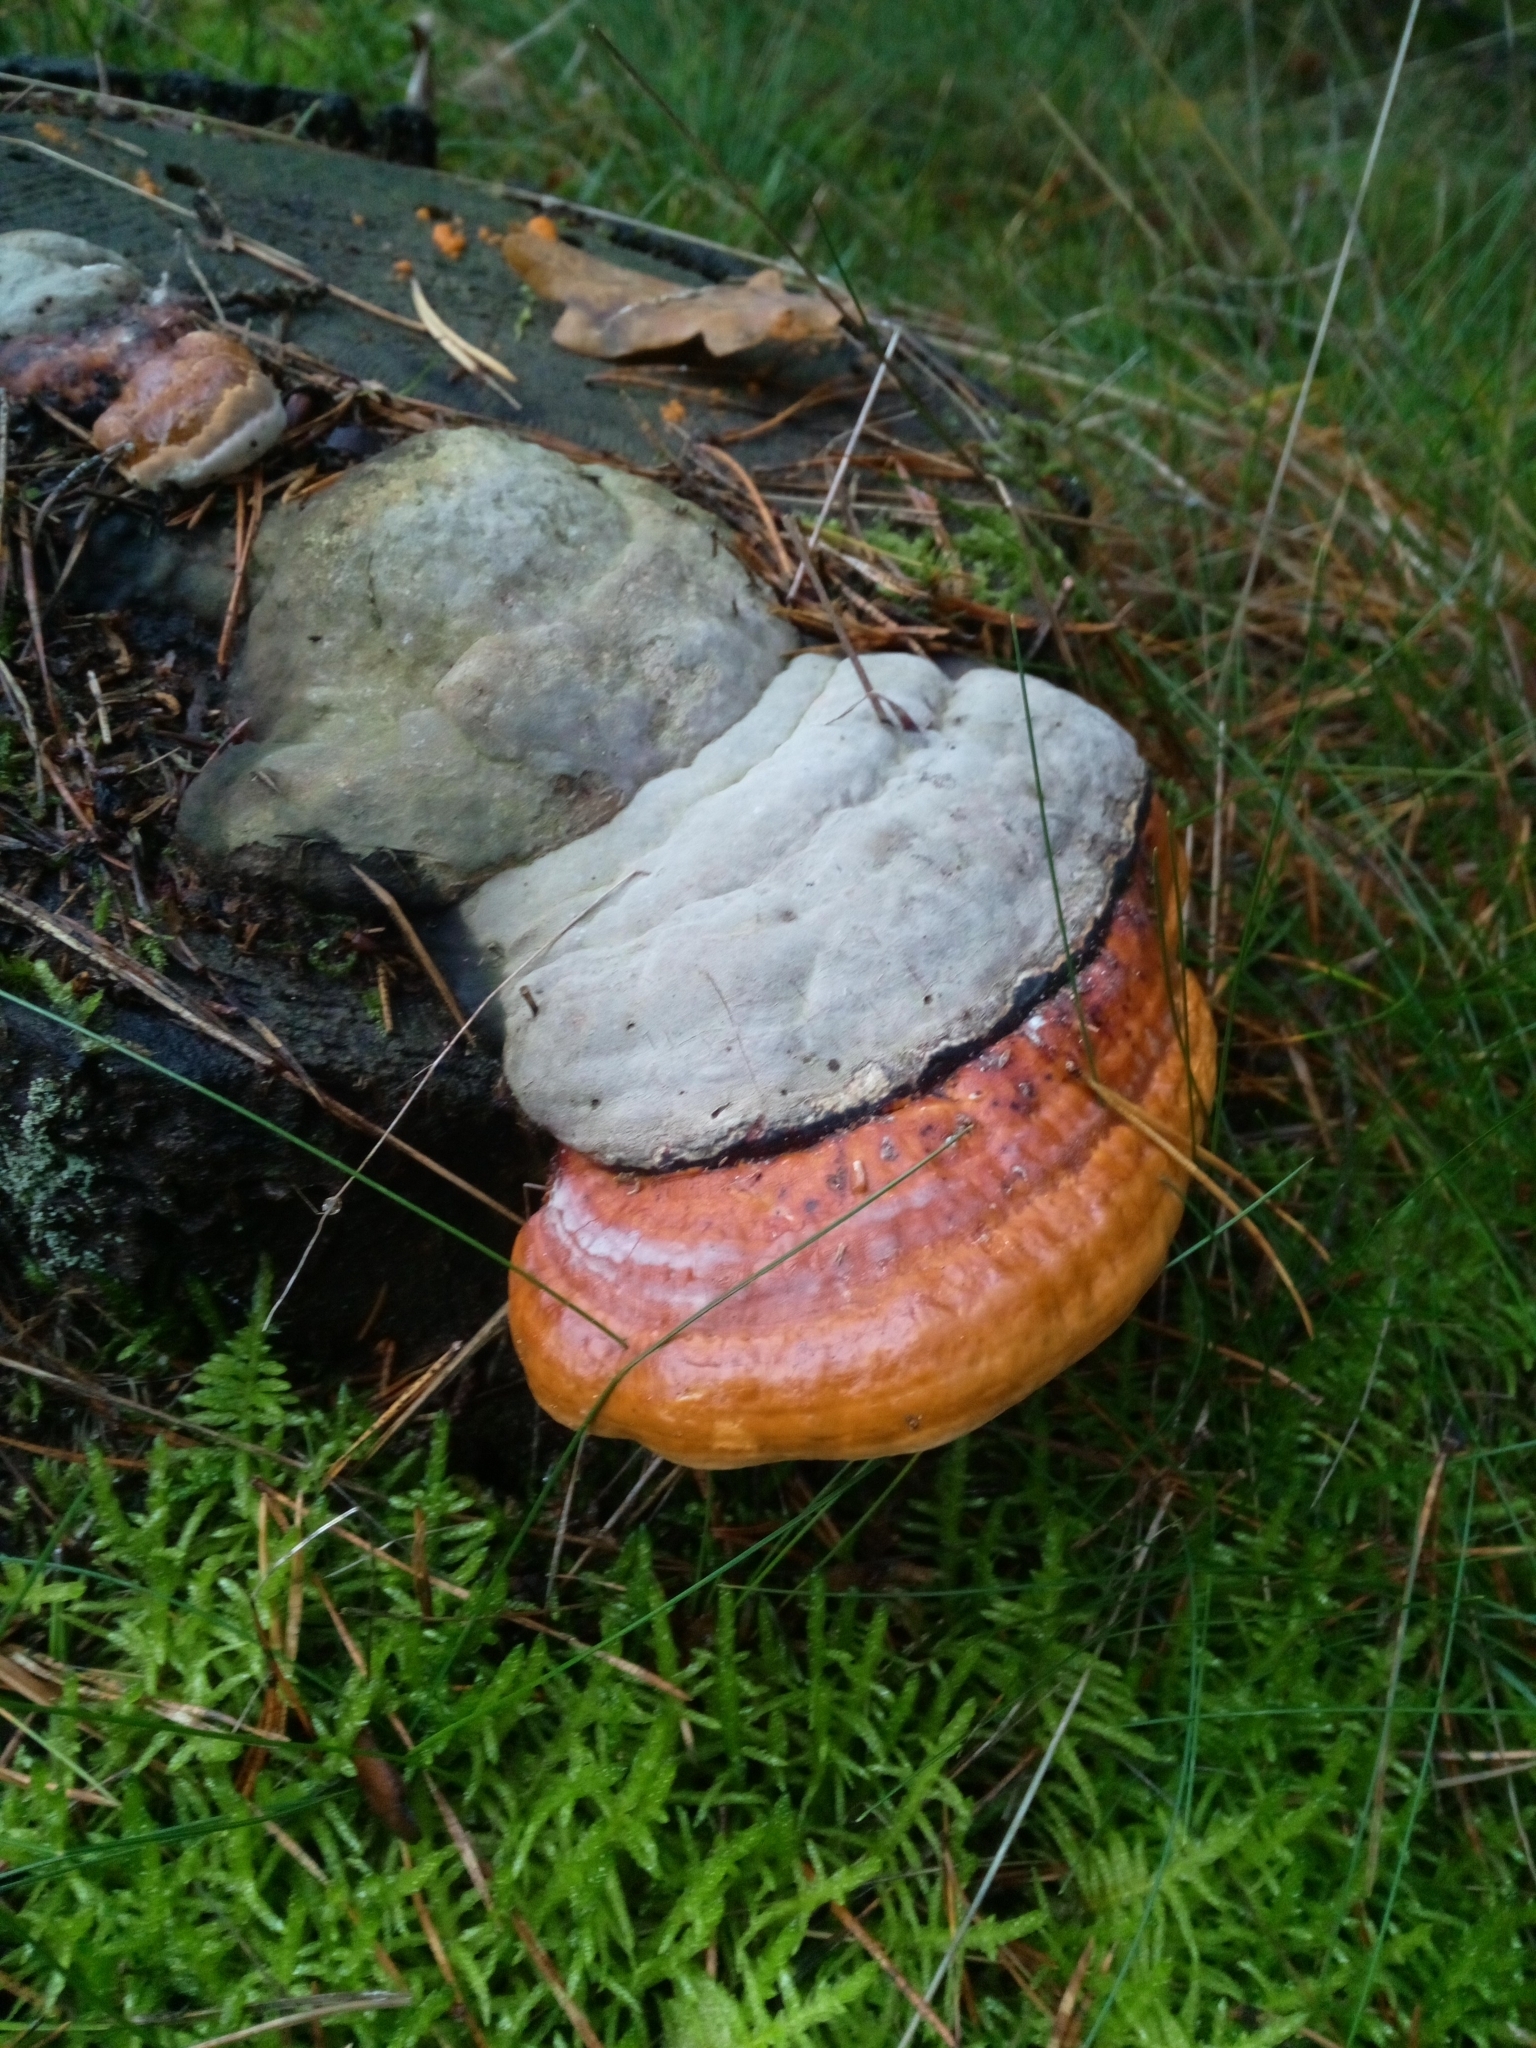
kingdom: Fungi
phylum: Basidiomycota
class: Agaricomycetes
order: Polyporales
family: Fomitopsidaceae
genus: Fomitopsis
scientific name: Fomitopsis pinicola
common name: Red-belted bracket
